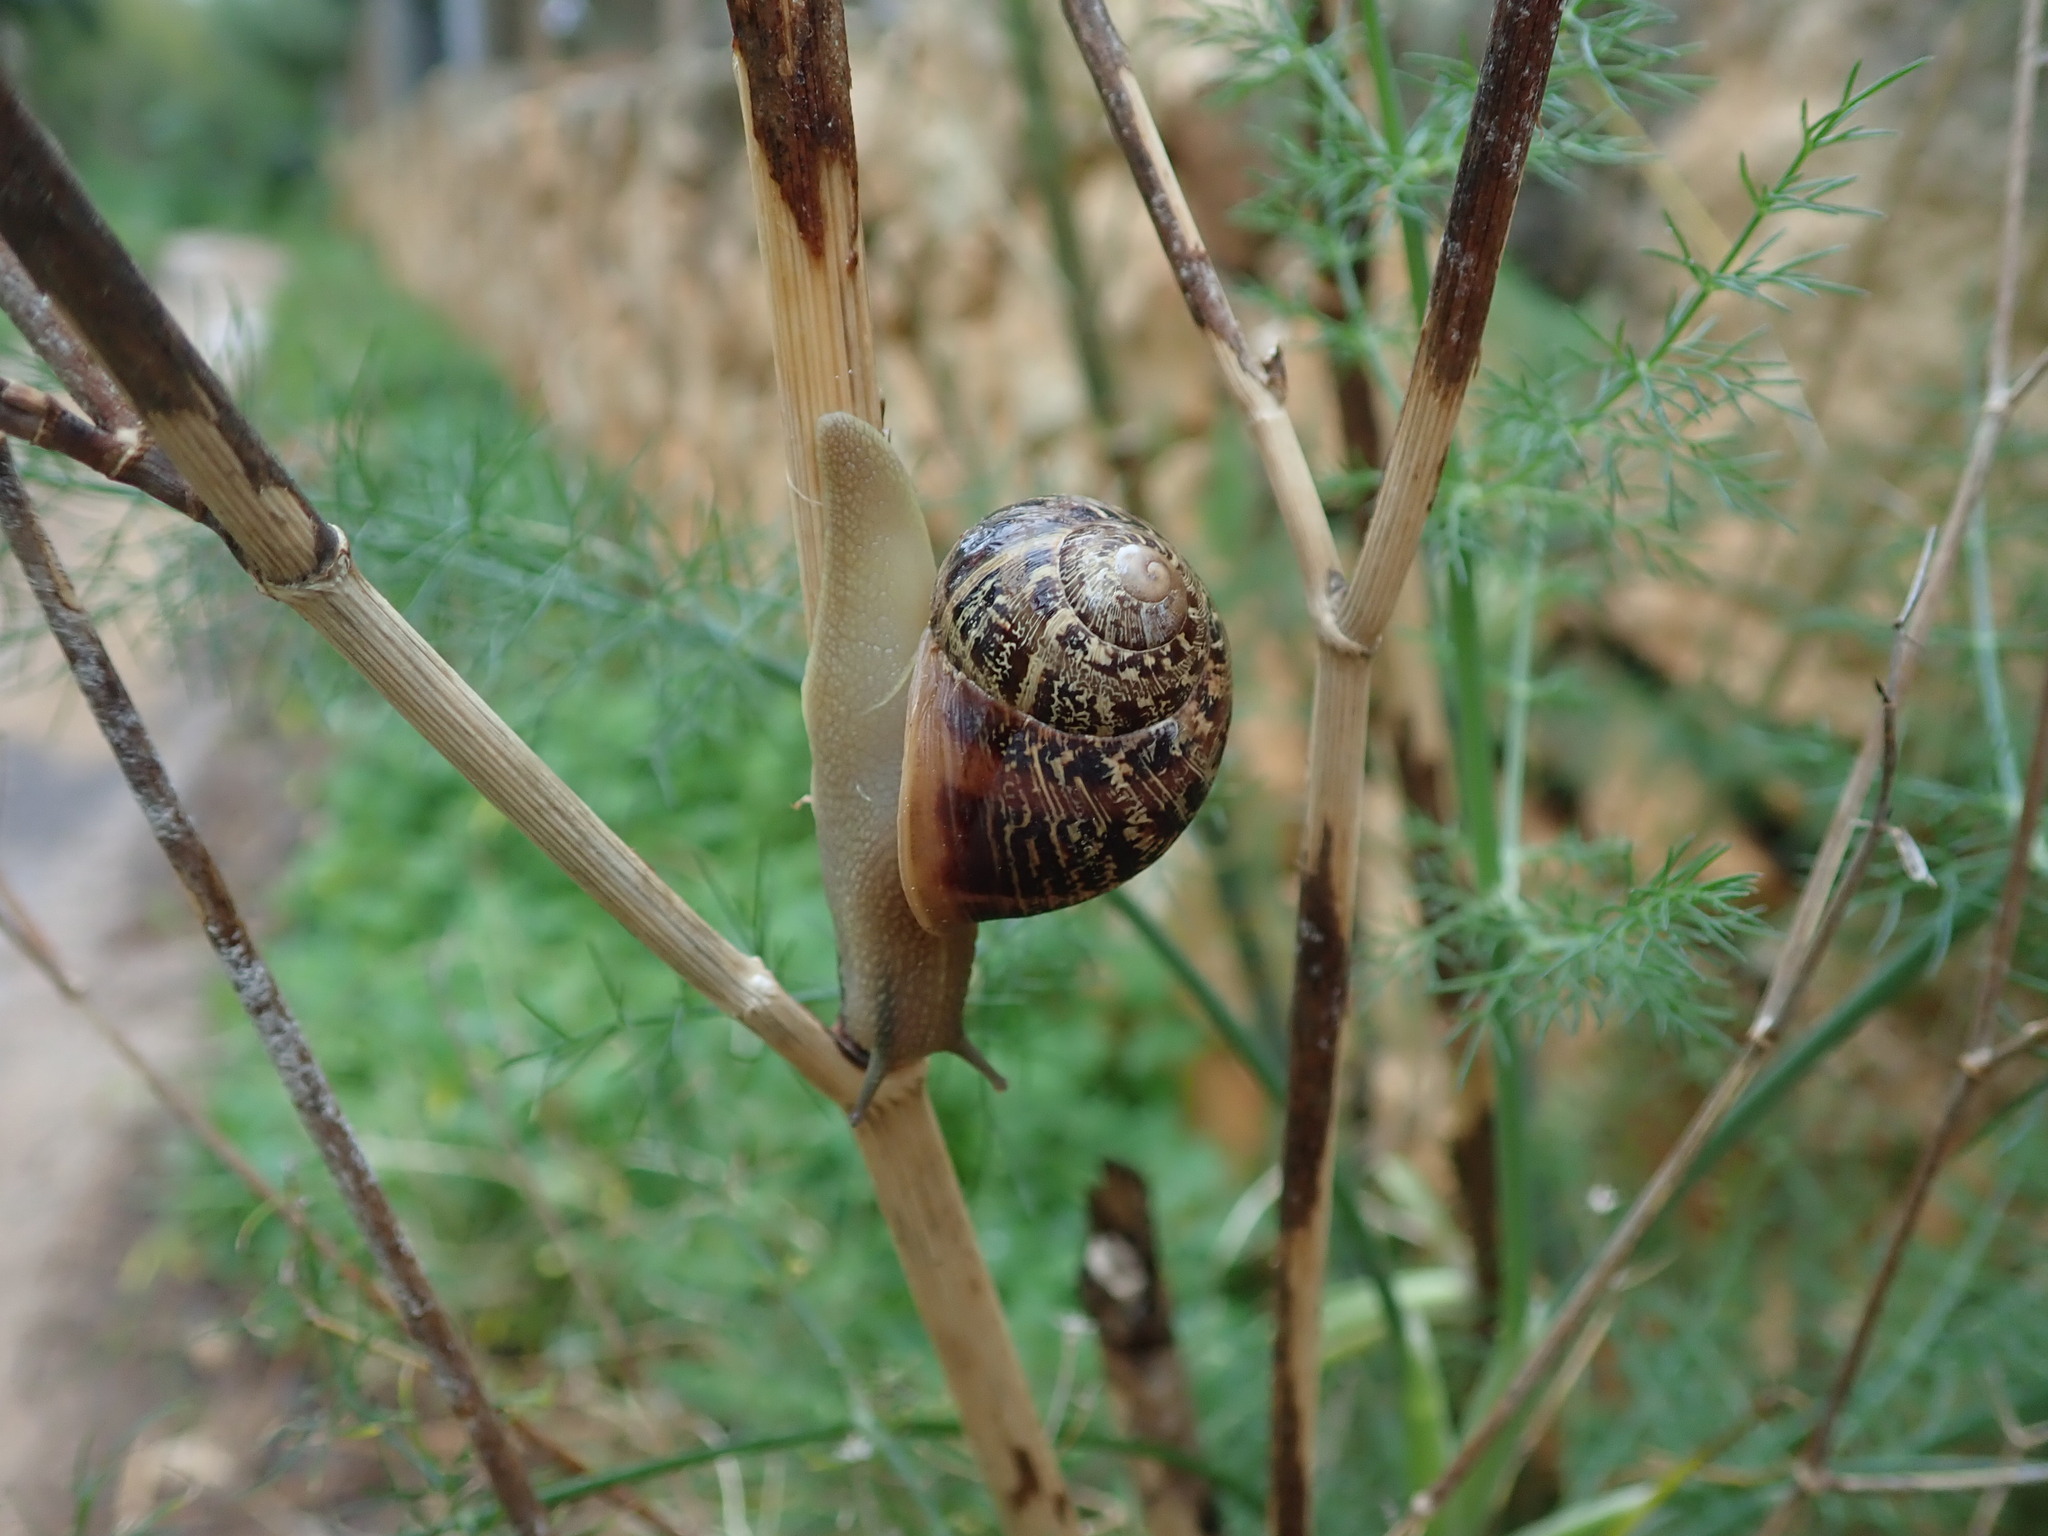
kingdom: Animalia
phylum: Mollusca
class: Gastropoda
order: Stylommatophora
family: Helicidae
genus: Cornu
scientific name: Cornu aspersum
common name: Brown garden snail
